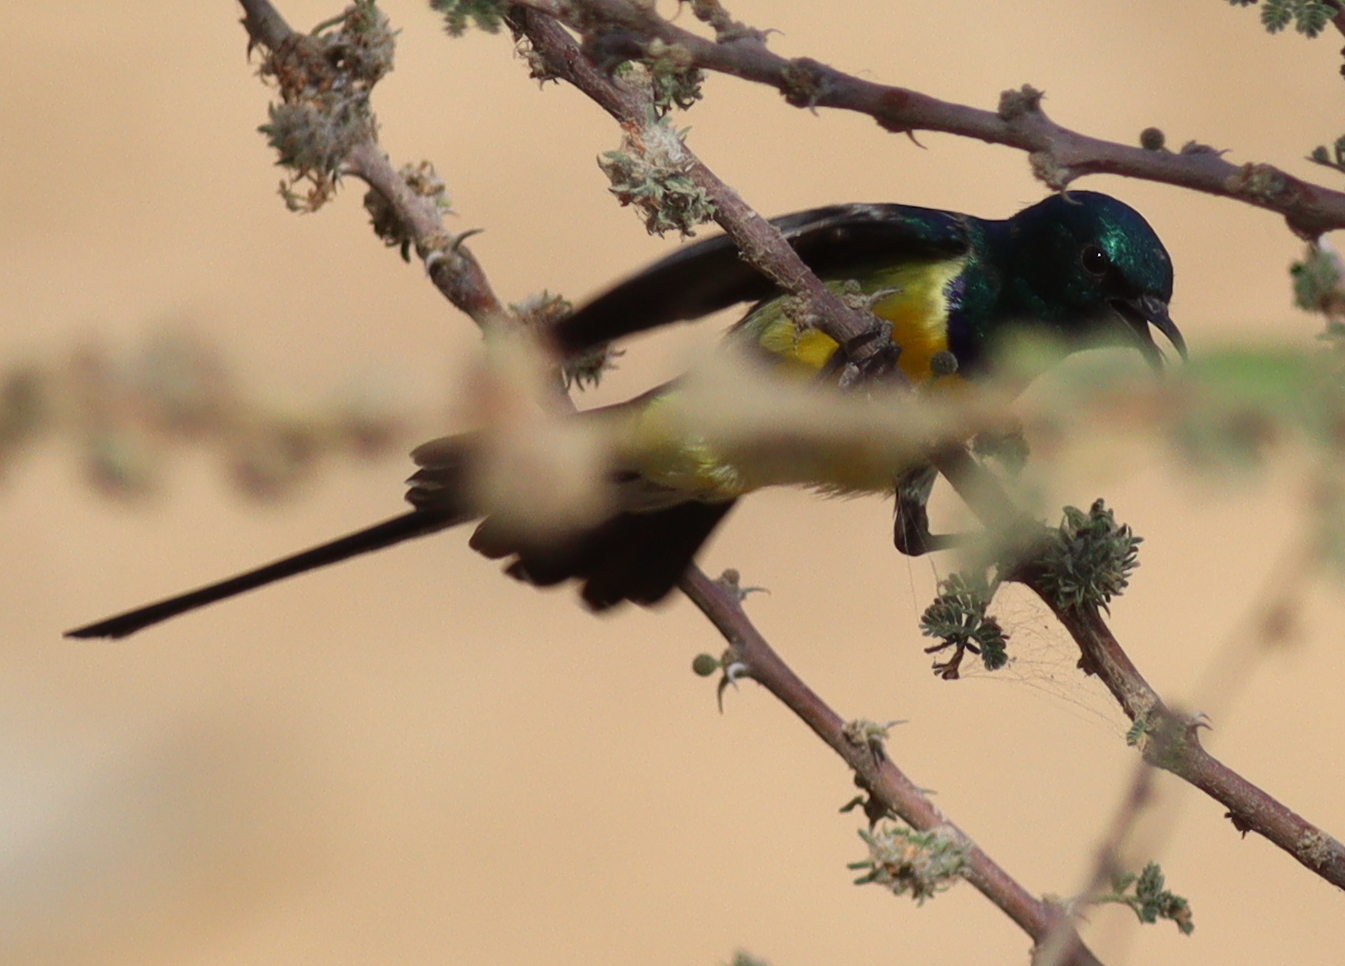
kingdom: Animalia
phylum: Chordata
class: Aves
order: Passeriformes
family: Nectariniidae
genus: Hedydipna
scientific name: Hedydipna metallica
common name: Nile valley sunbird
